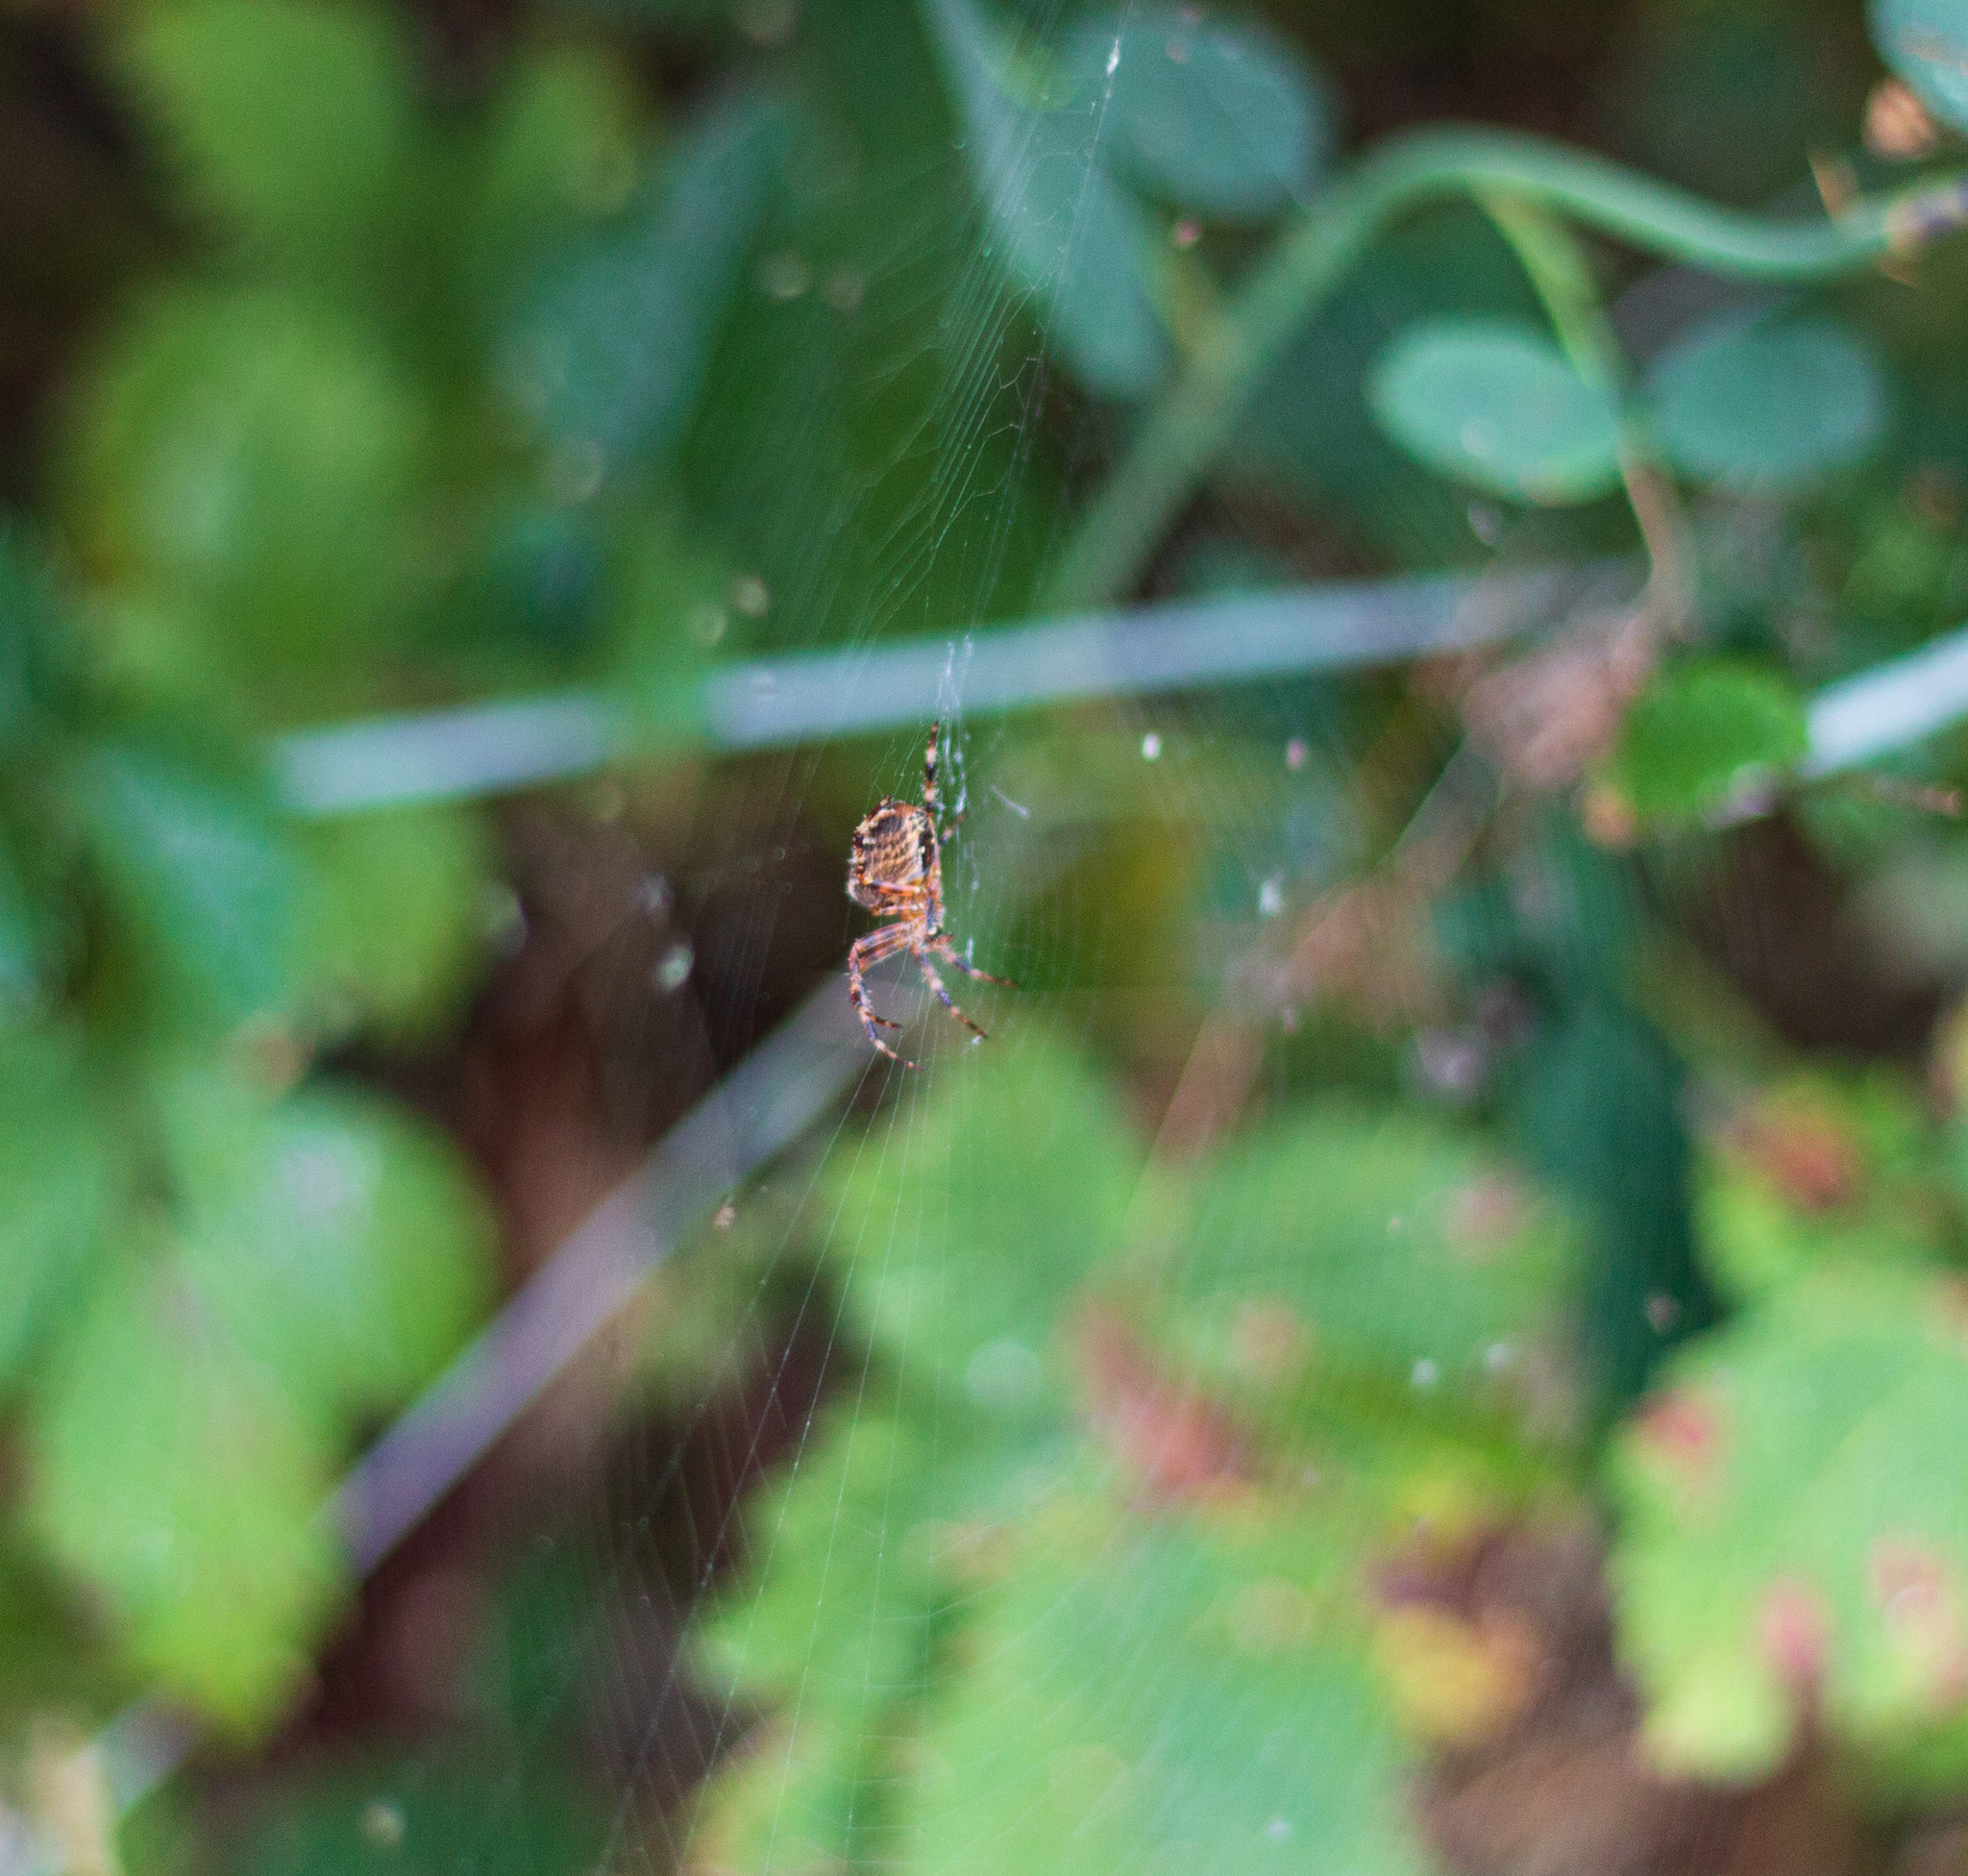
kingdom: Animalia
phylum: Arthropoda
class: Arachnida
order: Araneae
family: Araneidae
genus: Araneus
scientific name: Araneus diadematus
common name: Cross orbweaver
